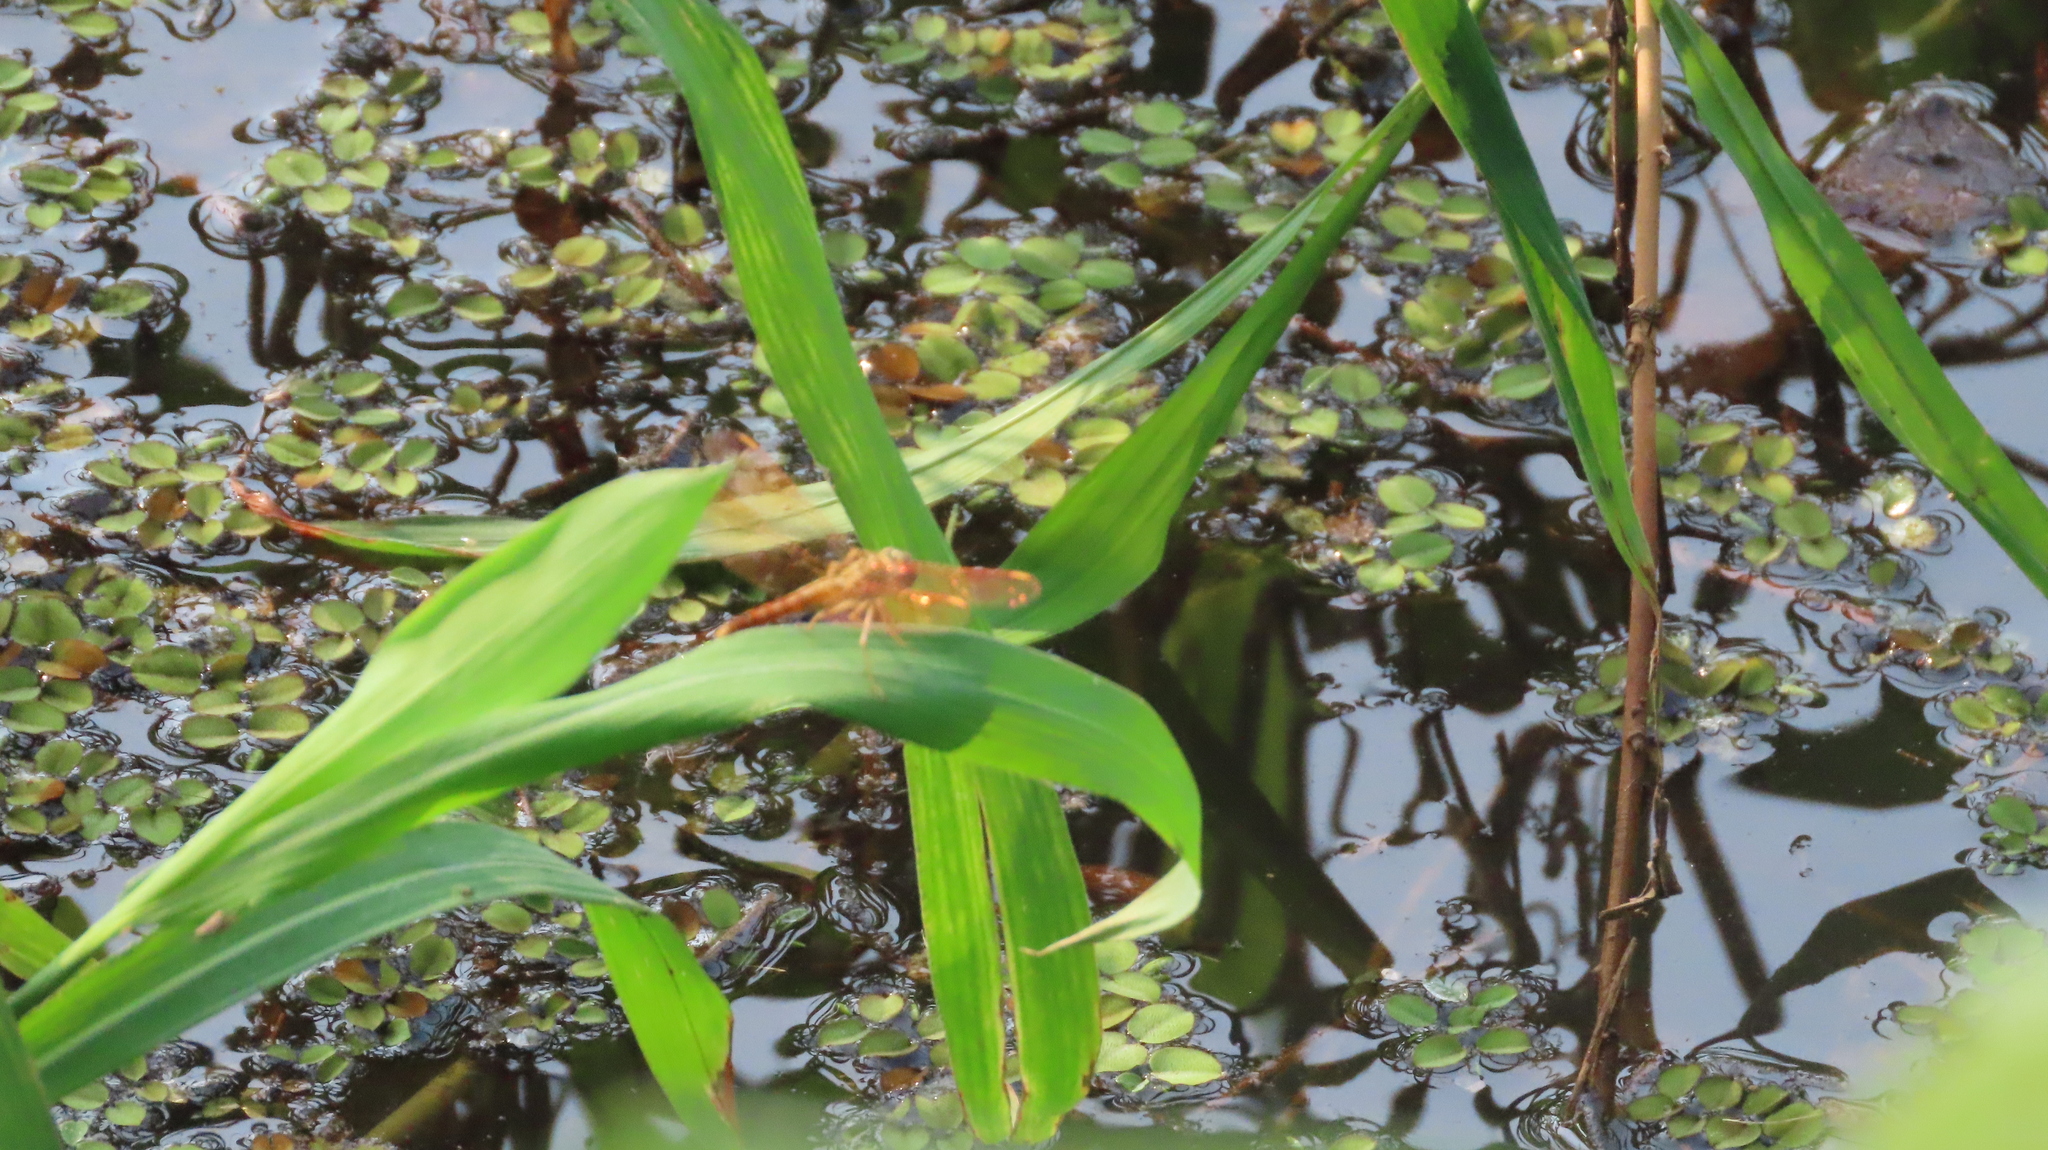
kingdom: Animalia
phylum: Arthropoda
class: Insecta
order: Odonata
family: Libellulidae
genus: Brachythemis
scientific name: Brachythemis contaminata
